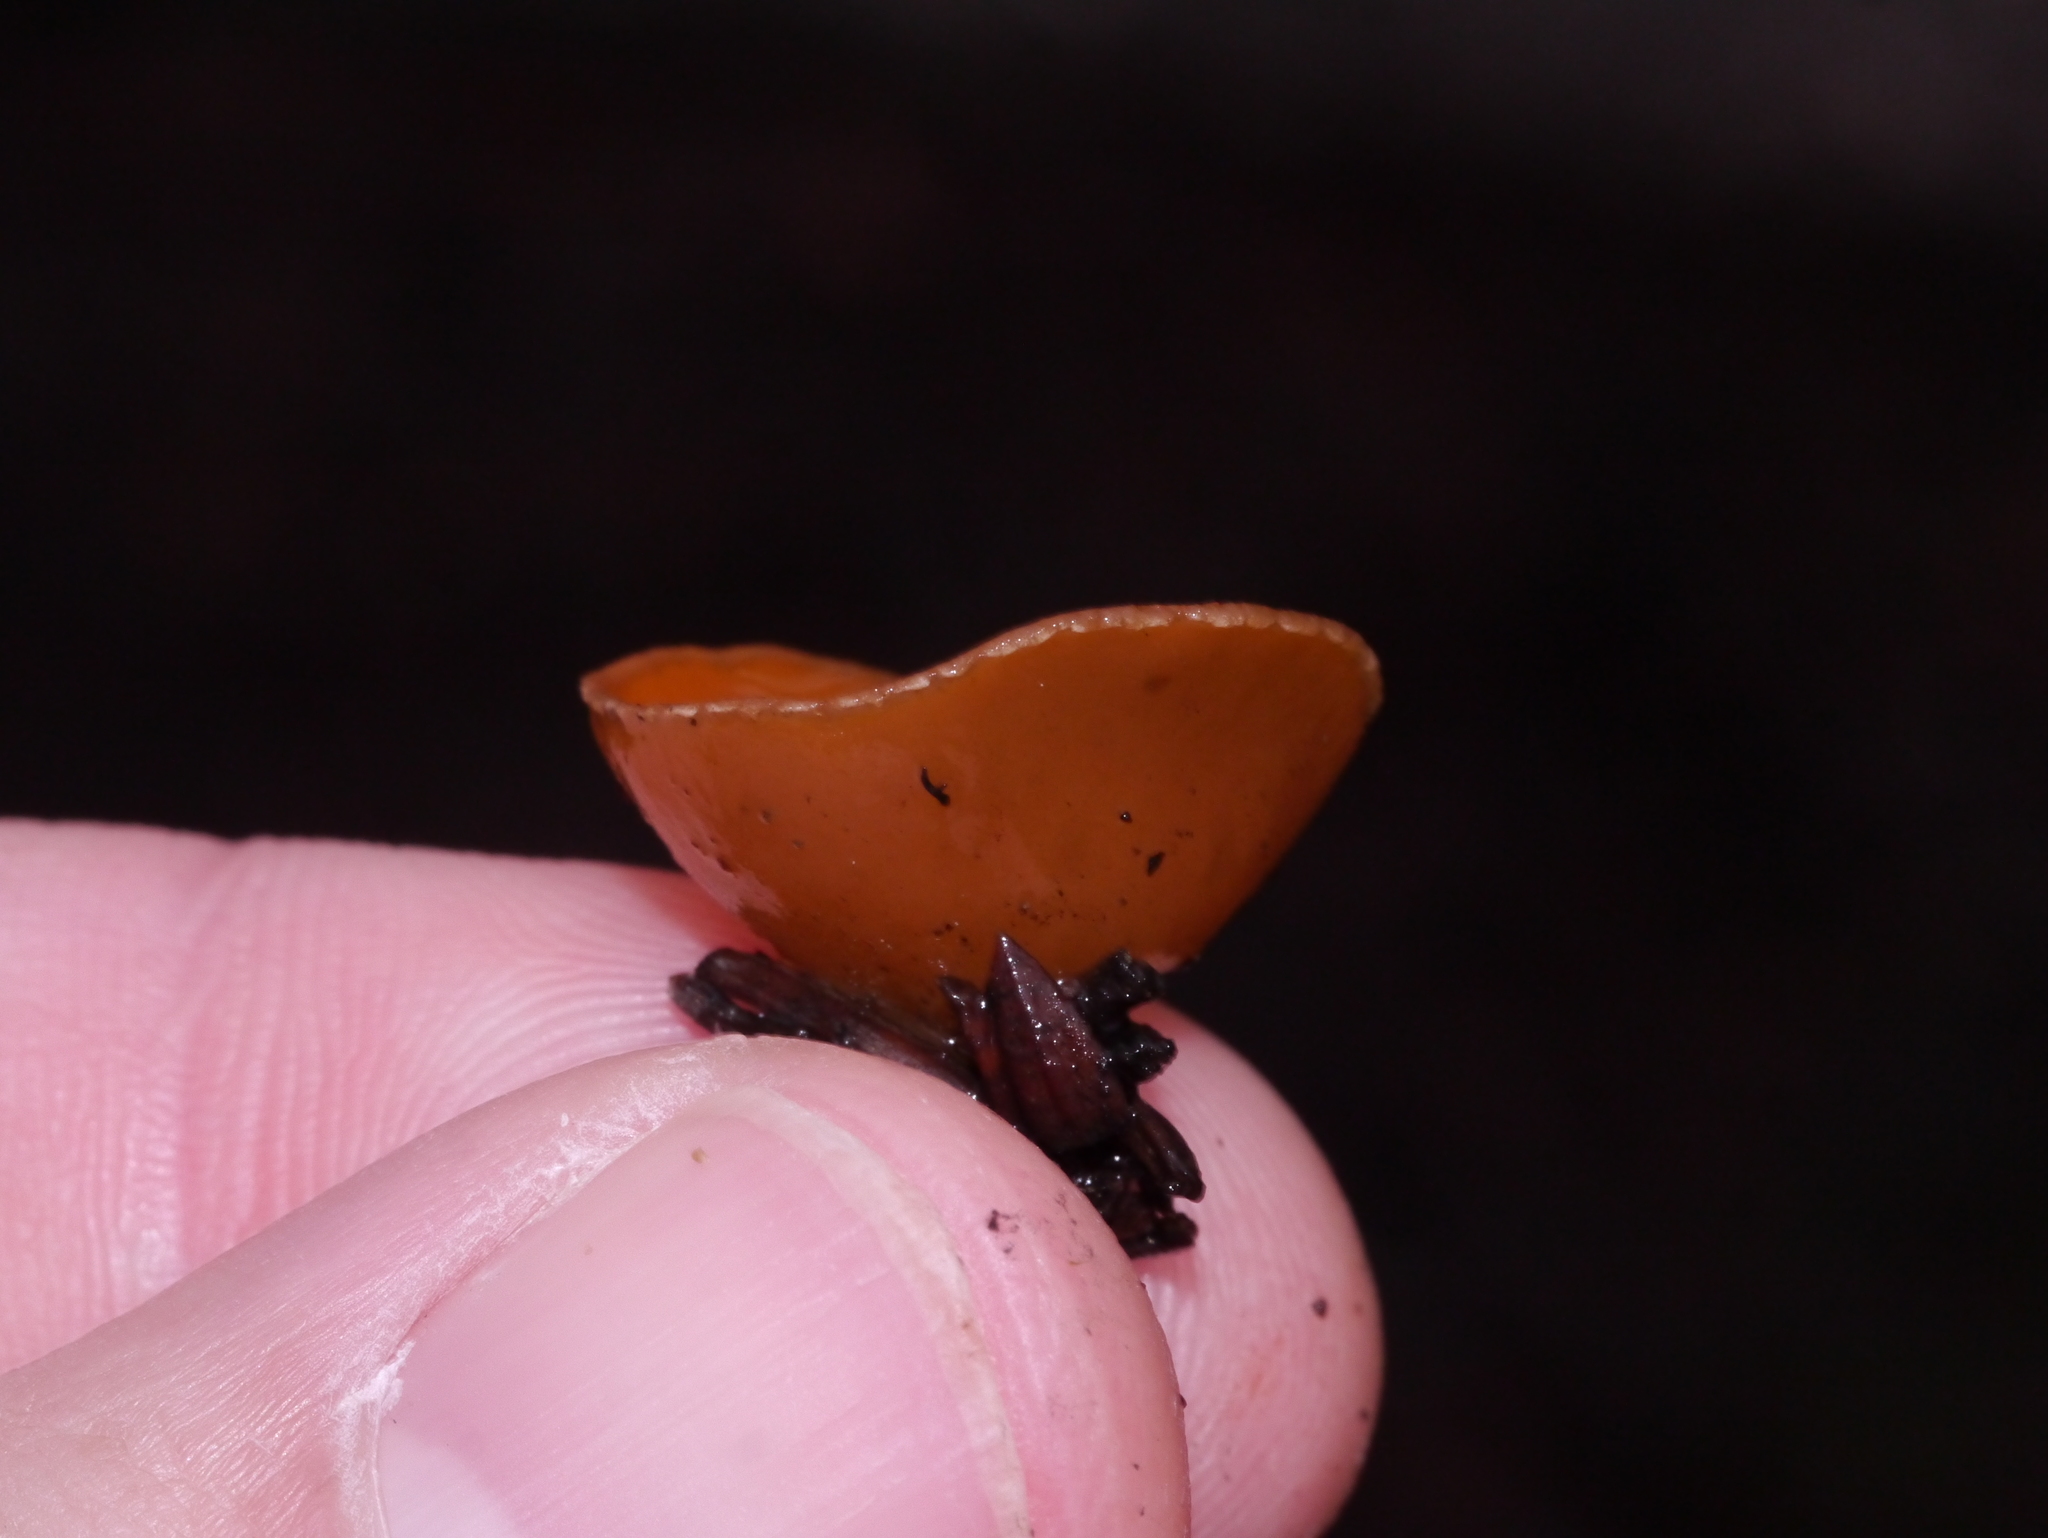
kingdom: Fungi
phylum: Ascomycota
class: Pezizomycetes
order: Pezizales
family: Pyronemataceae
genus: Geopyxis
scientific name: Geopyxis carbonaria
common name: Stalked bonfire cup
